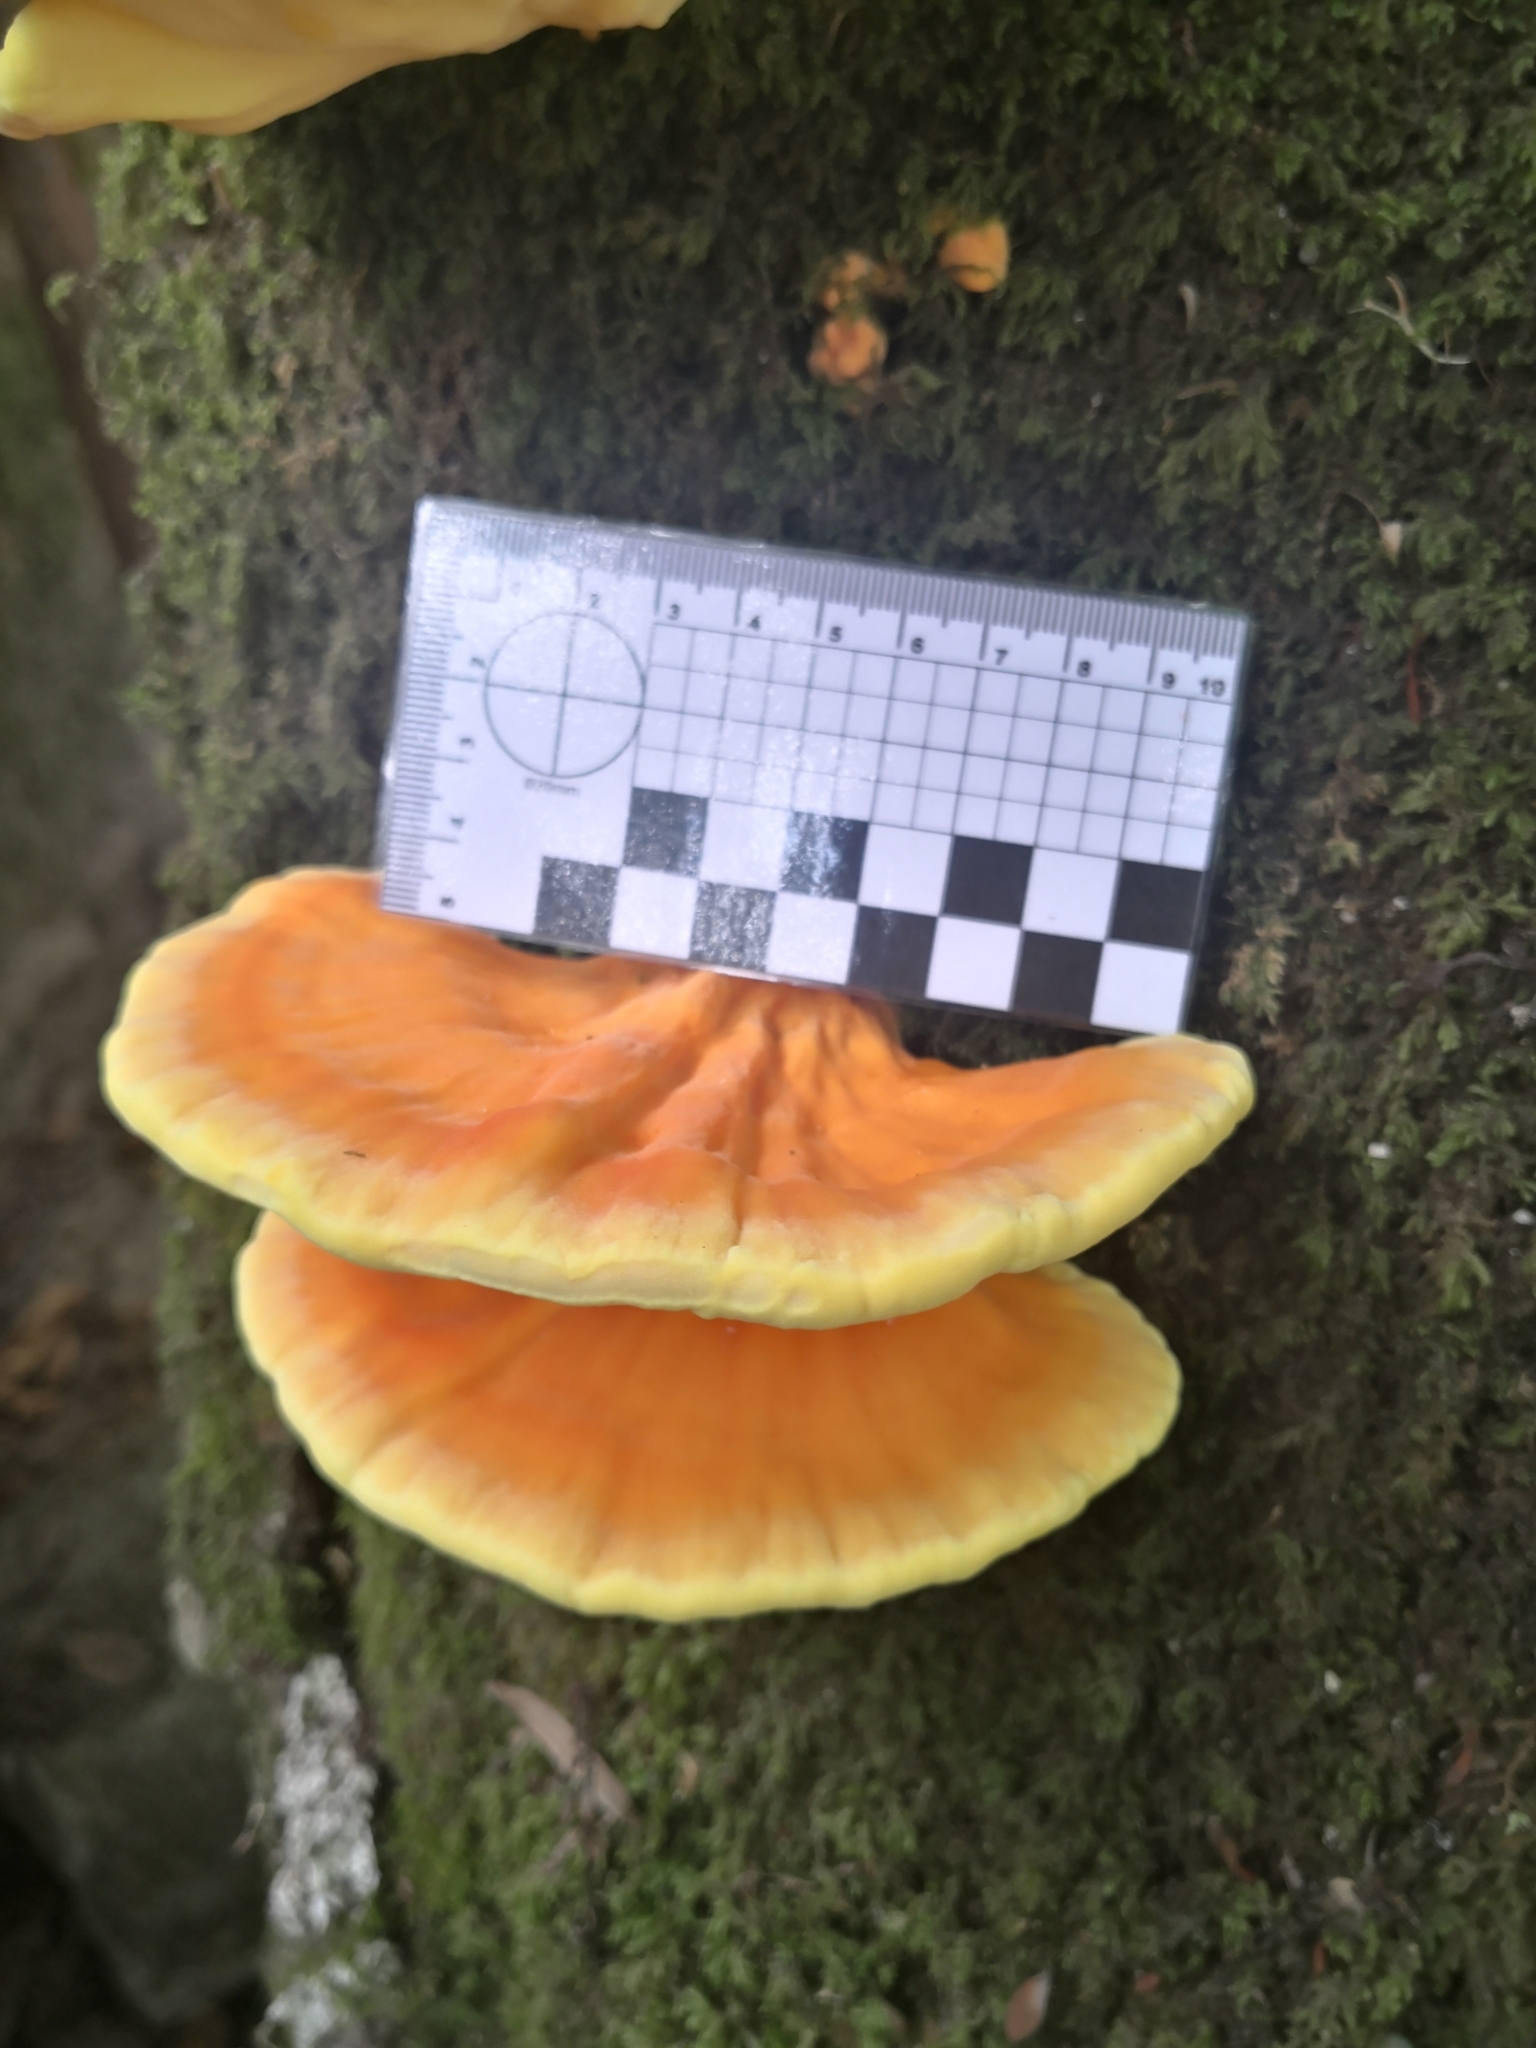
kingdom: Fungi
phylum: Basidiomycota
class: Agaricomycetes
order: Polyporales
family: Laetiporaceae
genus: Laetiporus
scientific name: Laetiporus sulphureus
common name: Chicken of the woods
